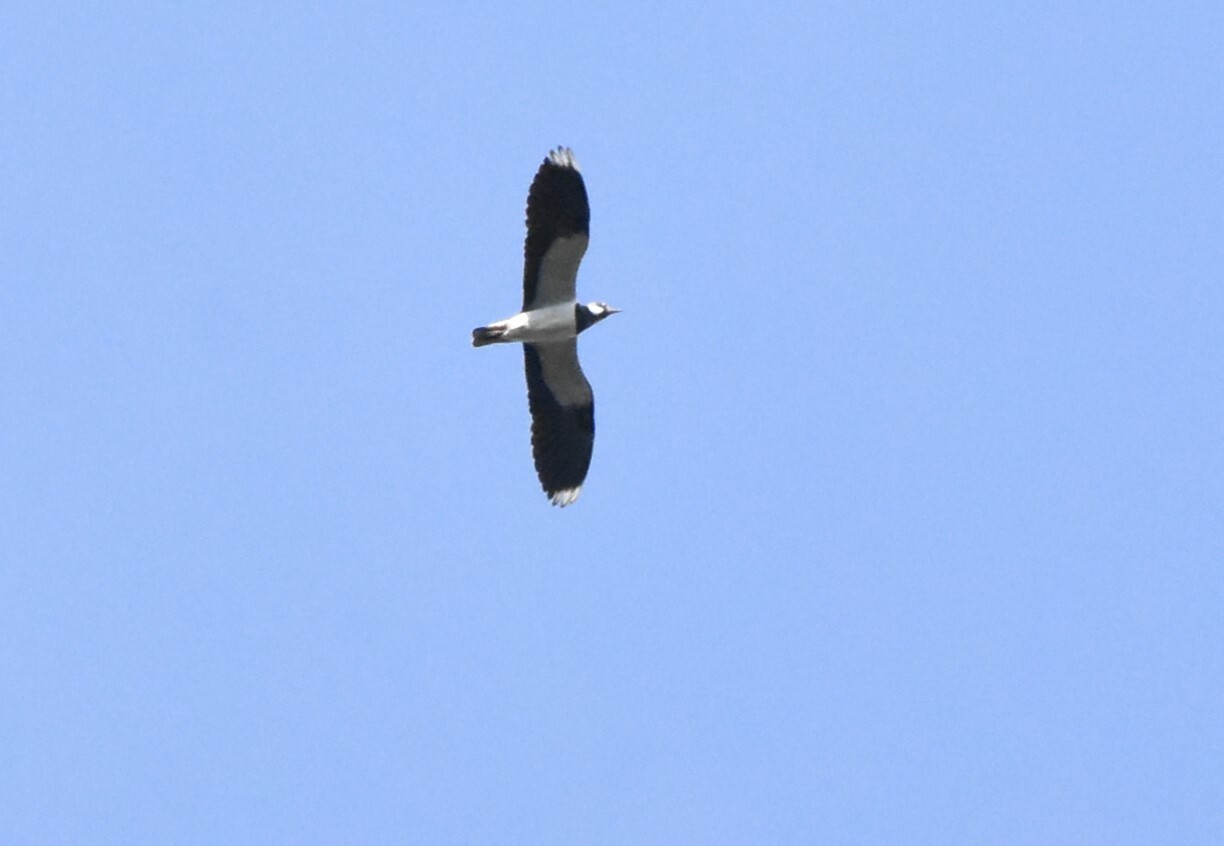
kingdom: Animalia
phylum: Chordata
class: Aves
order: Charadriiformes
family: Charadriidae
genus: Vanellus
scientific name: Vanellus vanellus
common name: Northern lapwing
